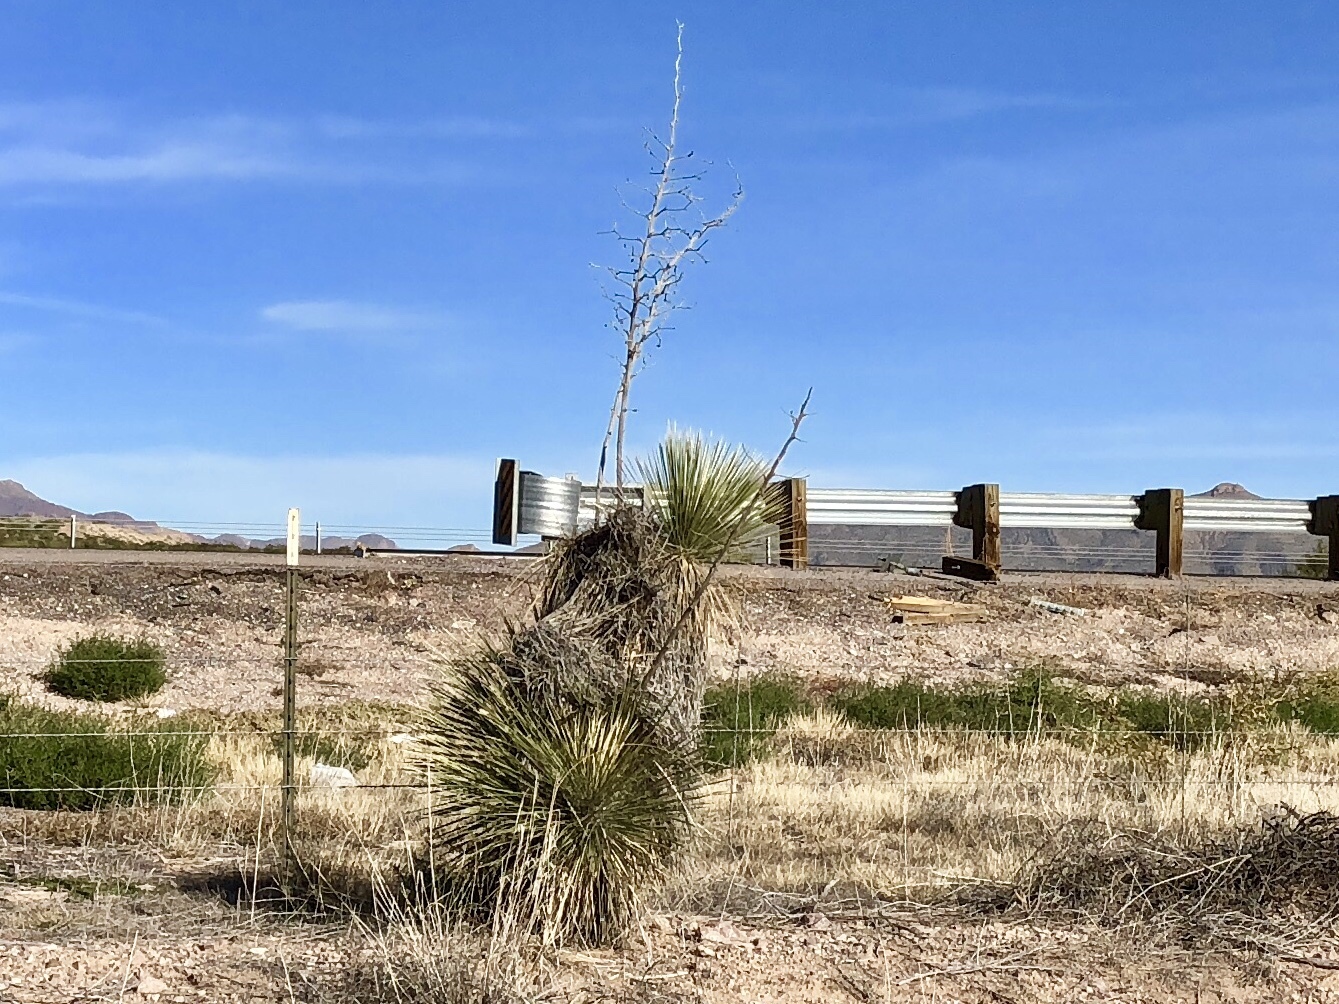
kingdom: Plantae
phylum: Tracheophyta
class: Liliopsida
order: Asparagales
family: Asparagaceae
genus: Yucca
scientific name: Yucca elata
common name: Palmella
